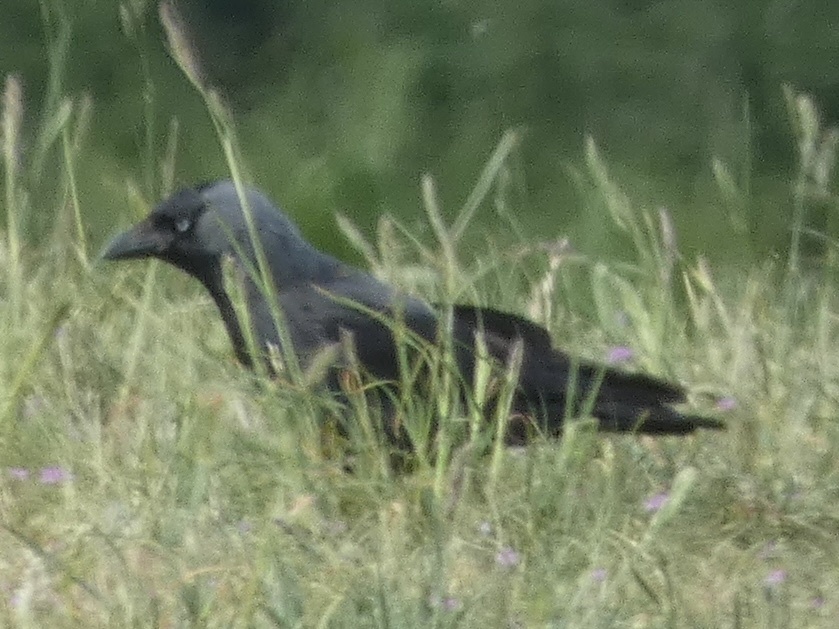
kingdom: Animalia
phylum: Chordata
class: Aves
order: Passeriformes
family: Corvidae
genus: Coloeus
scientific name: Coloeus monedula
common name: Western jackdaw
